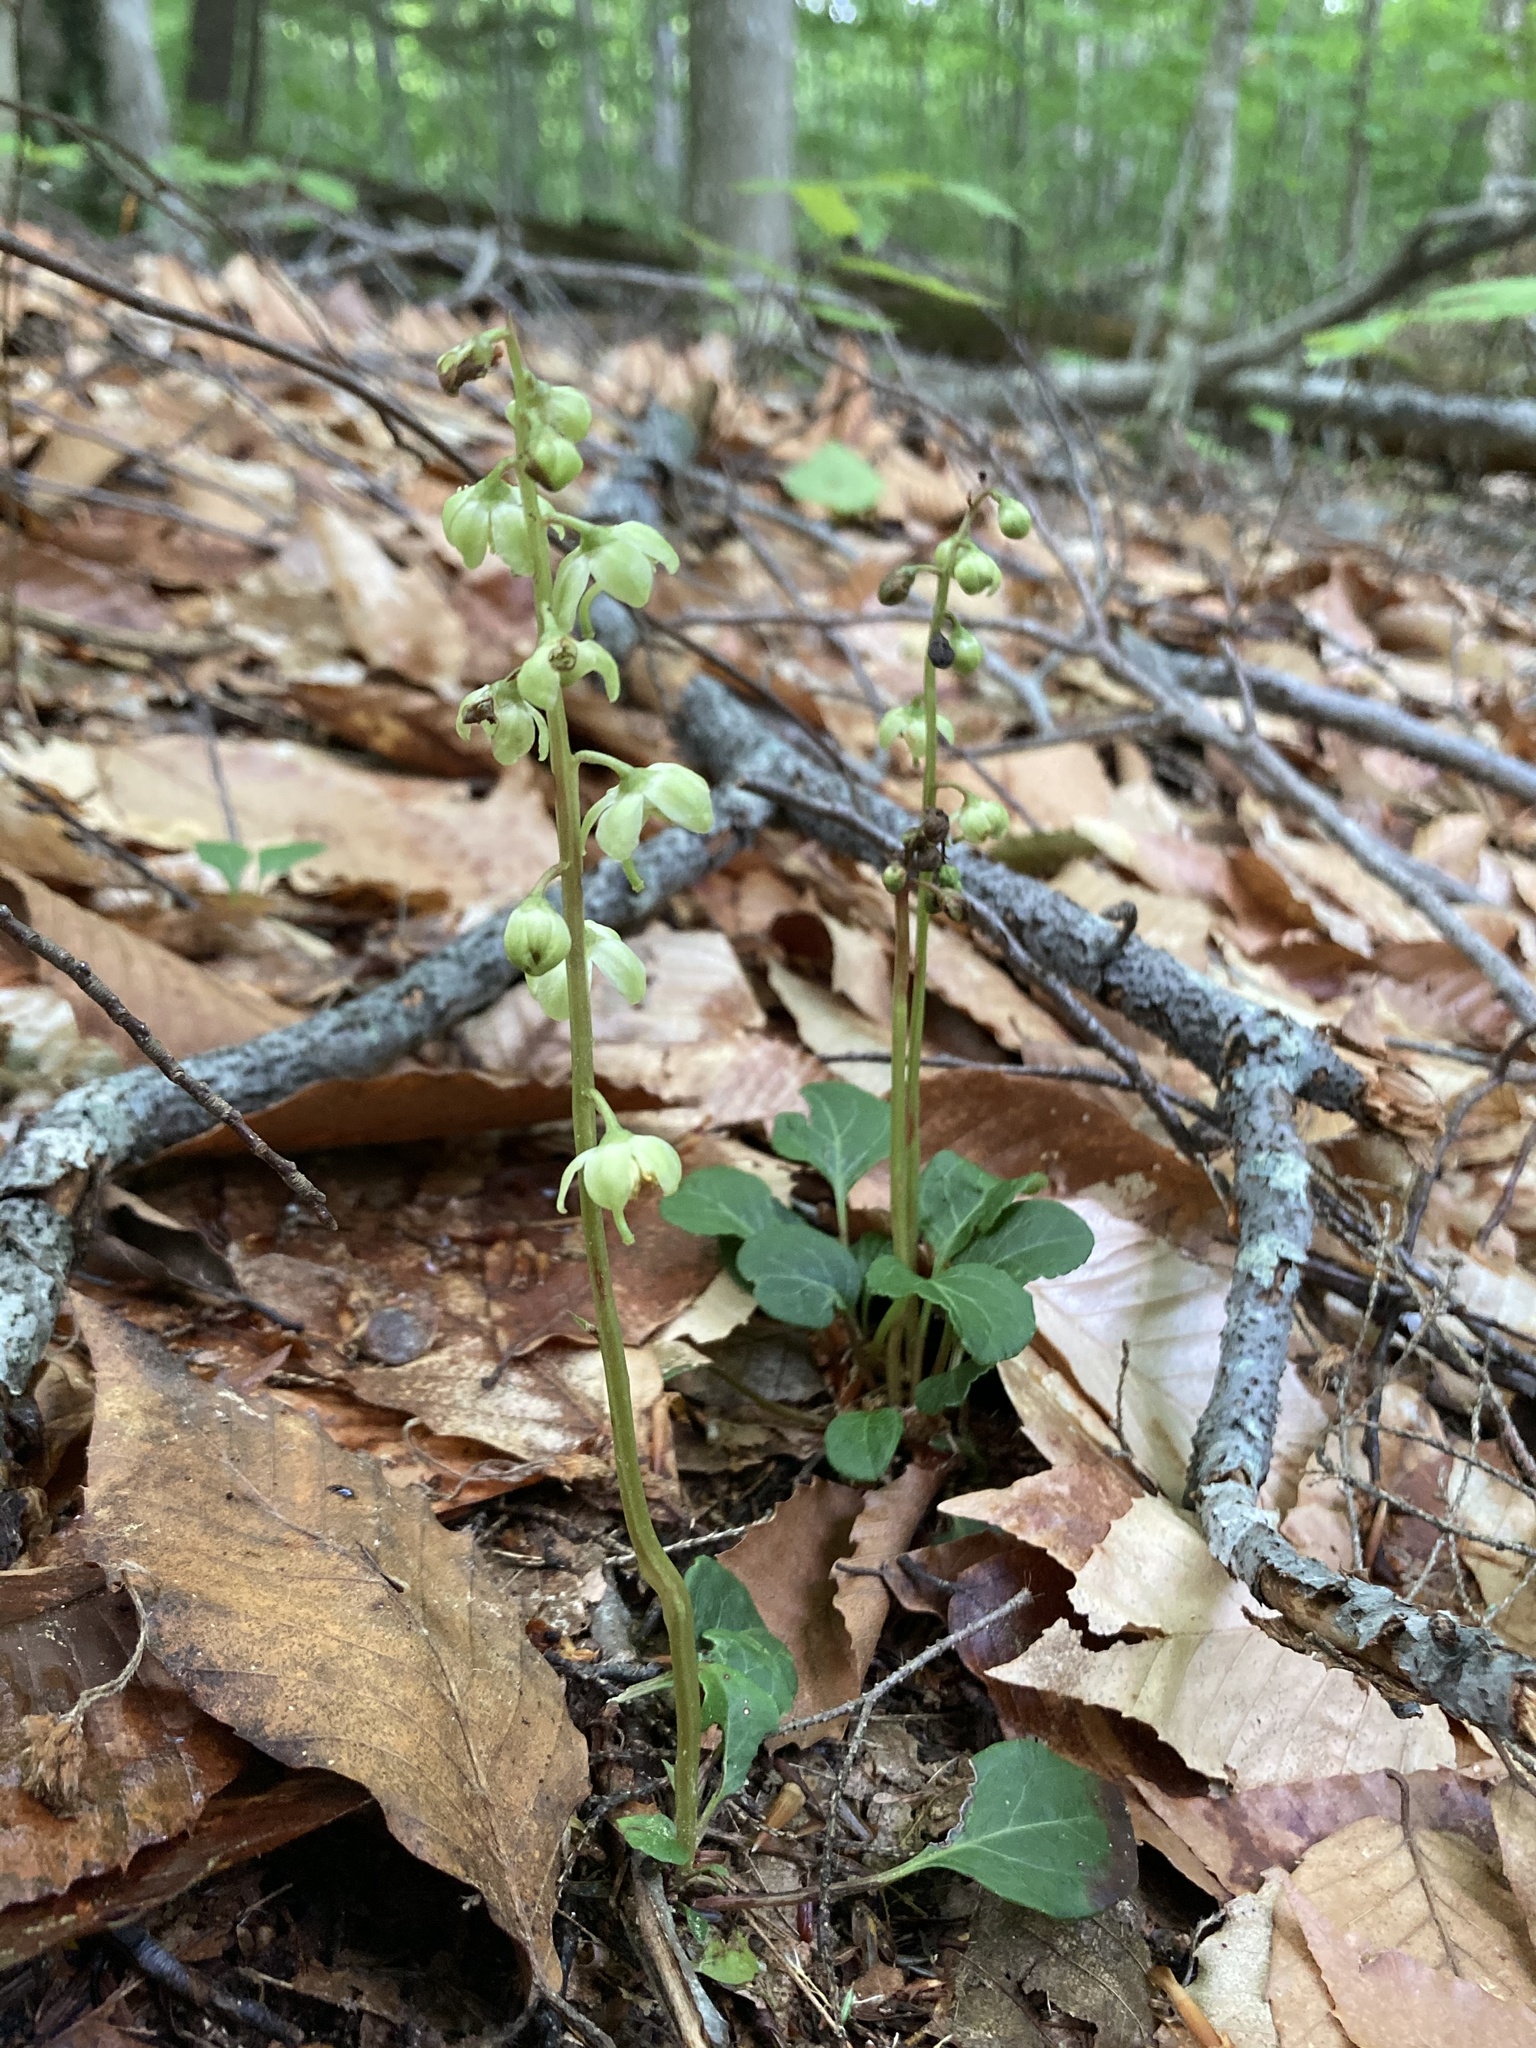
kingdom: Plantae
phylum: Tracheophyta
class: Magnoliopsida
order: Ericales
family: Ericaceae
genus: Pyrola
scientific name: Pyrola chlorantha
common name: Green wintergreen
